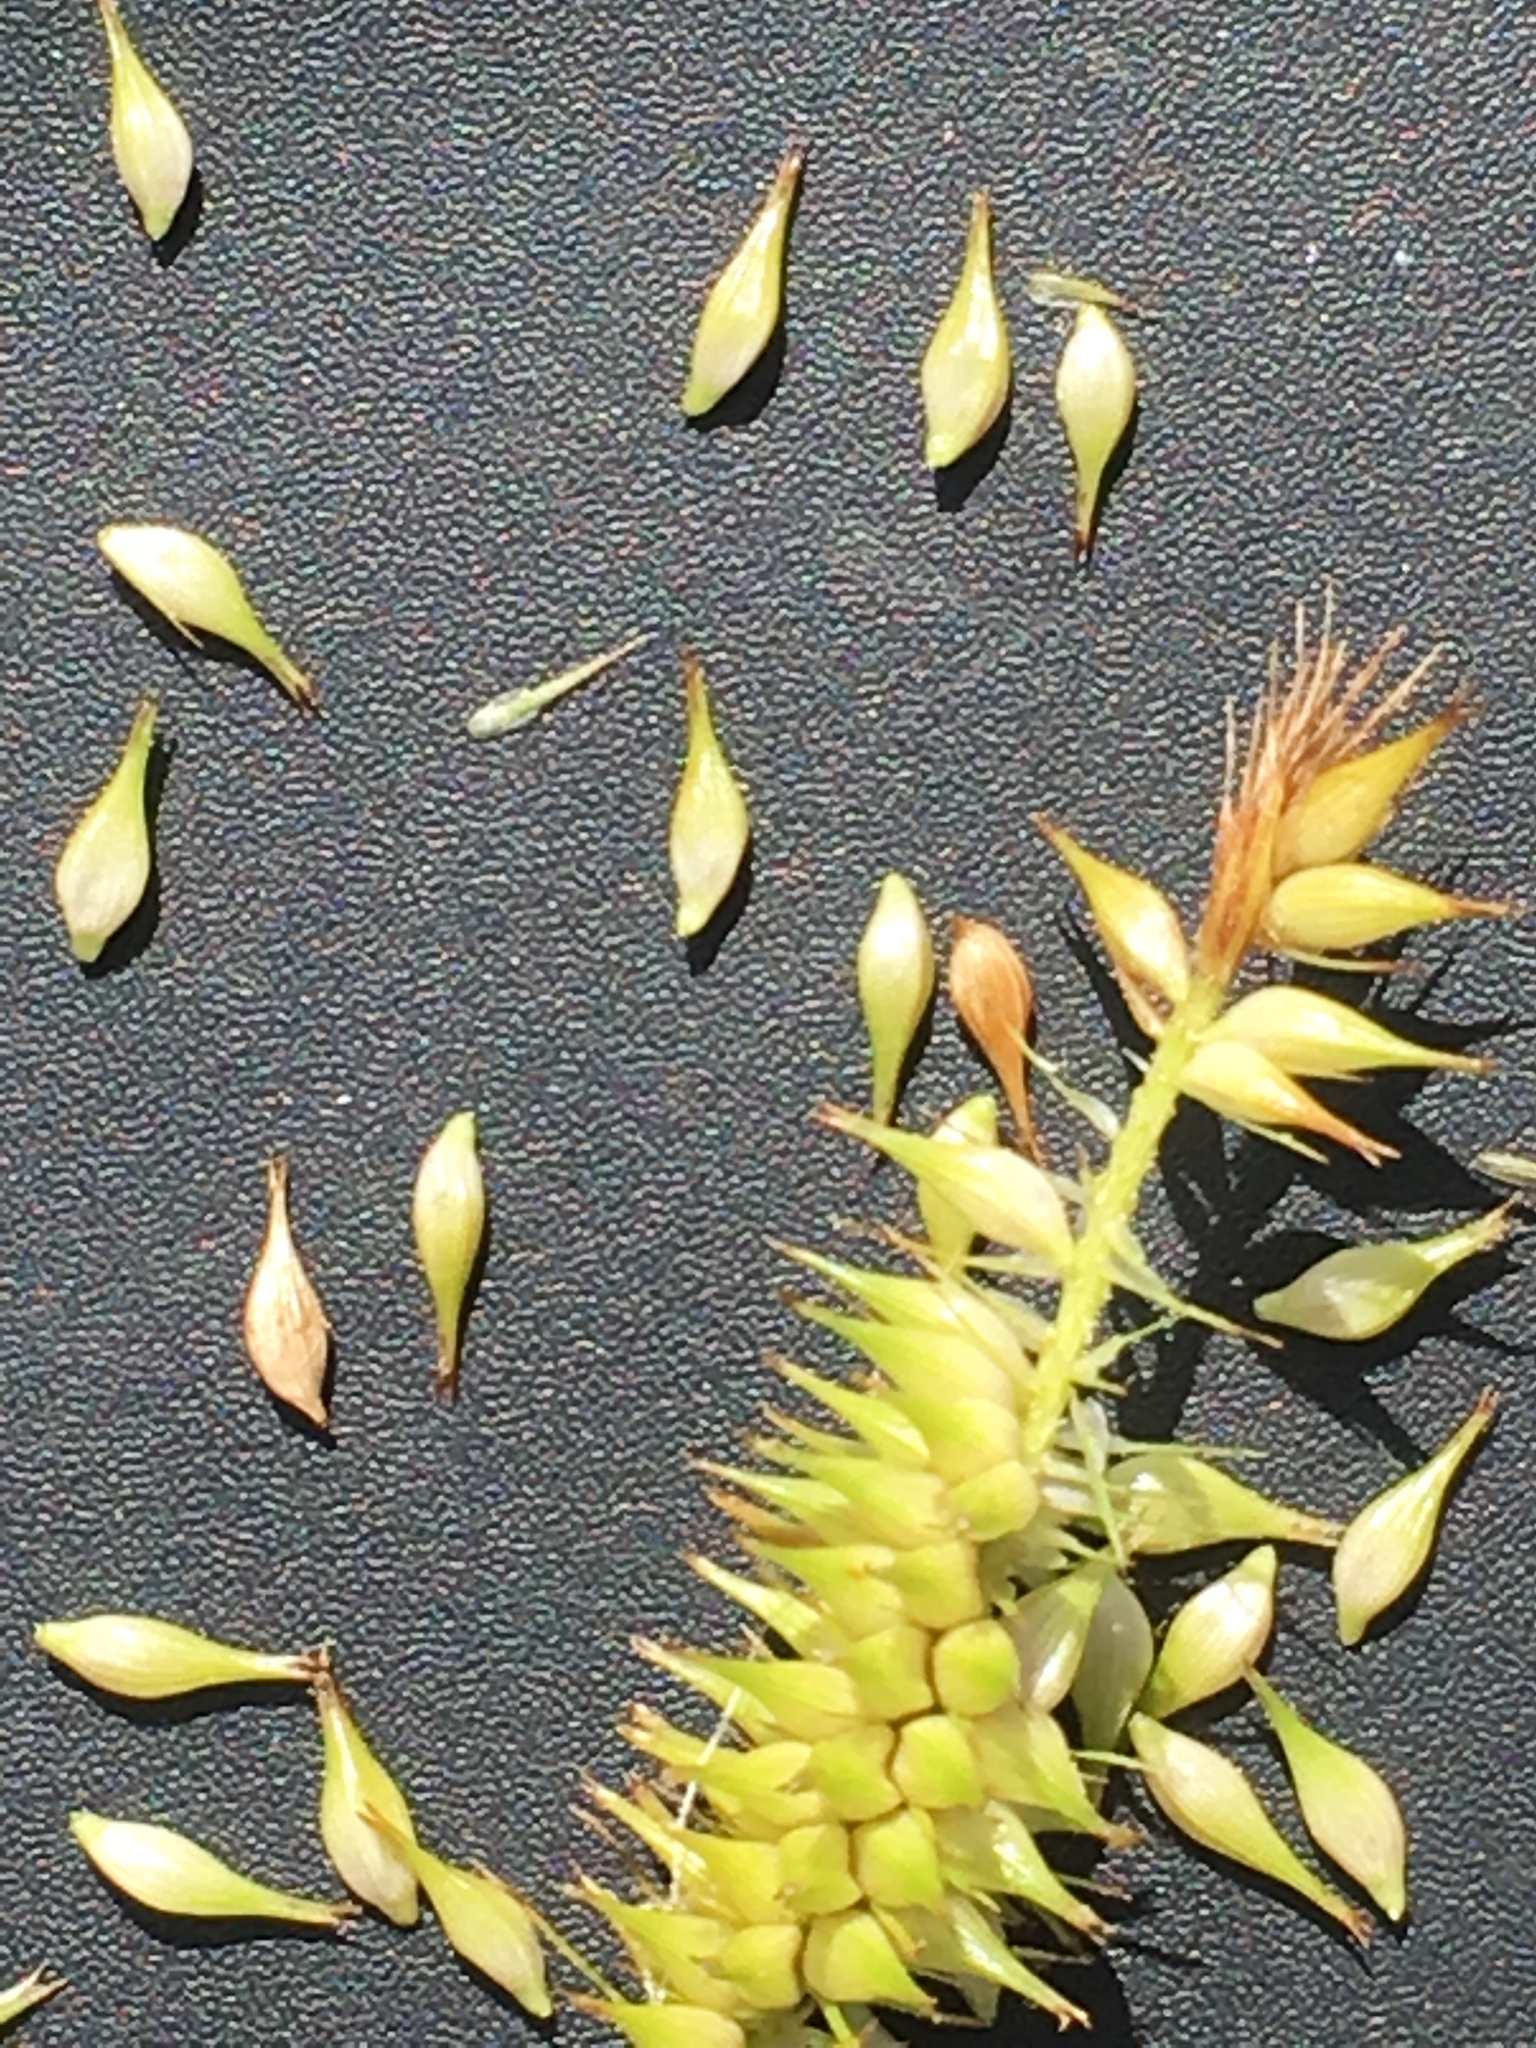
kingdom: Plantae
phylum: Tracheophyta
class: Liliopsida
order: Poales
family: Cyperaceae
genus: Carex
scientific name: Carex hystericina
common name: Bottlebrush sedge
